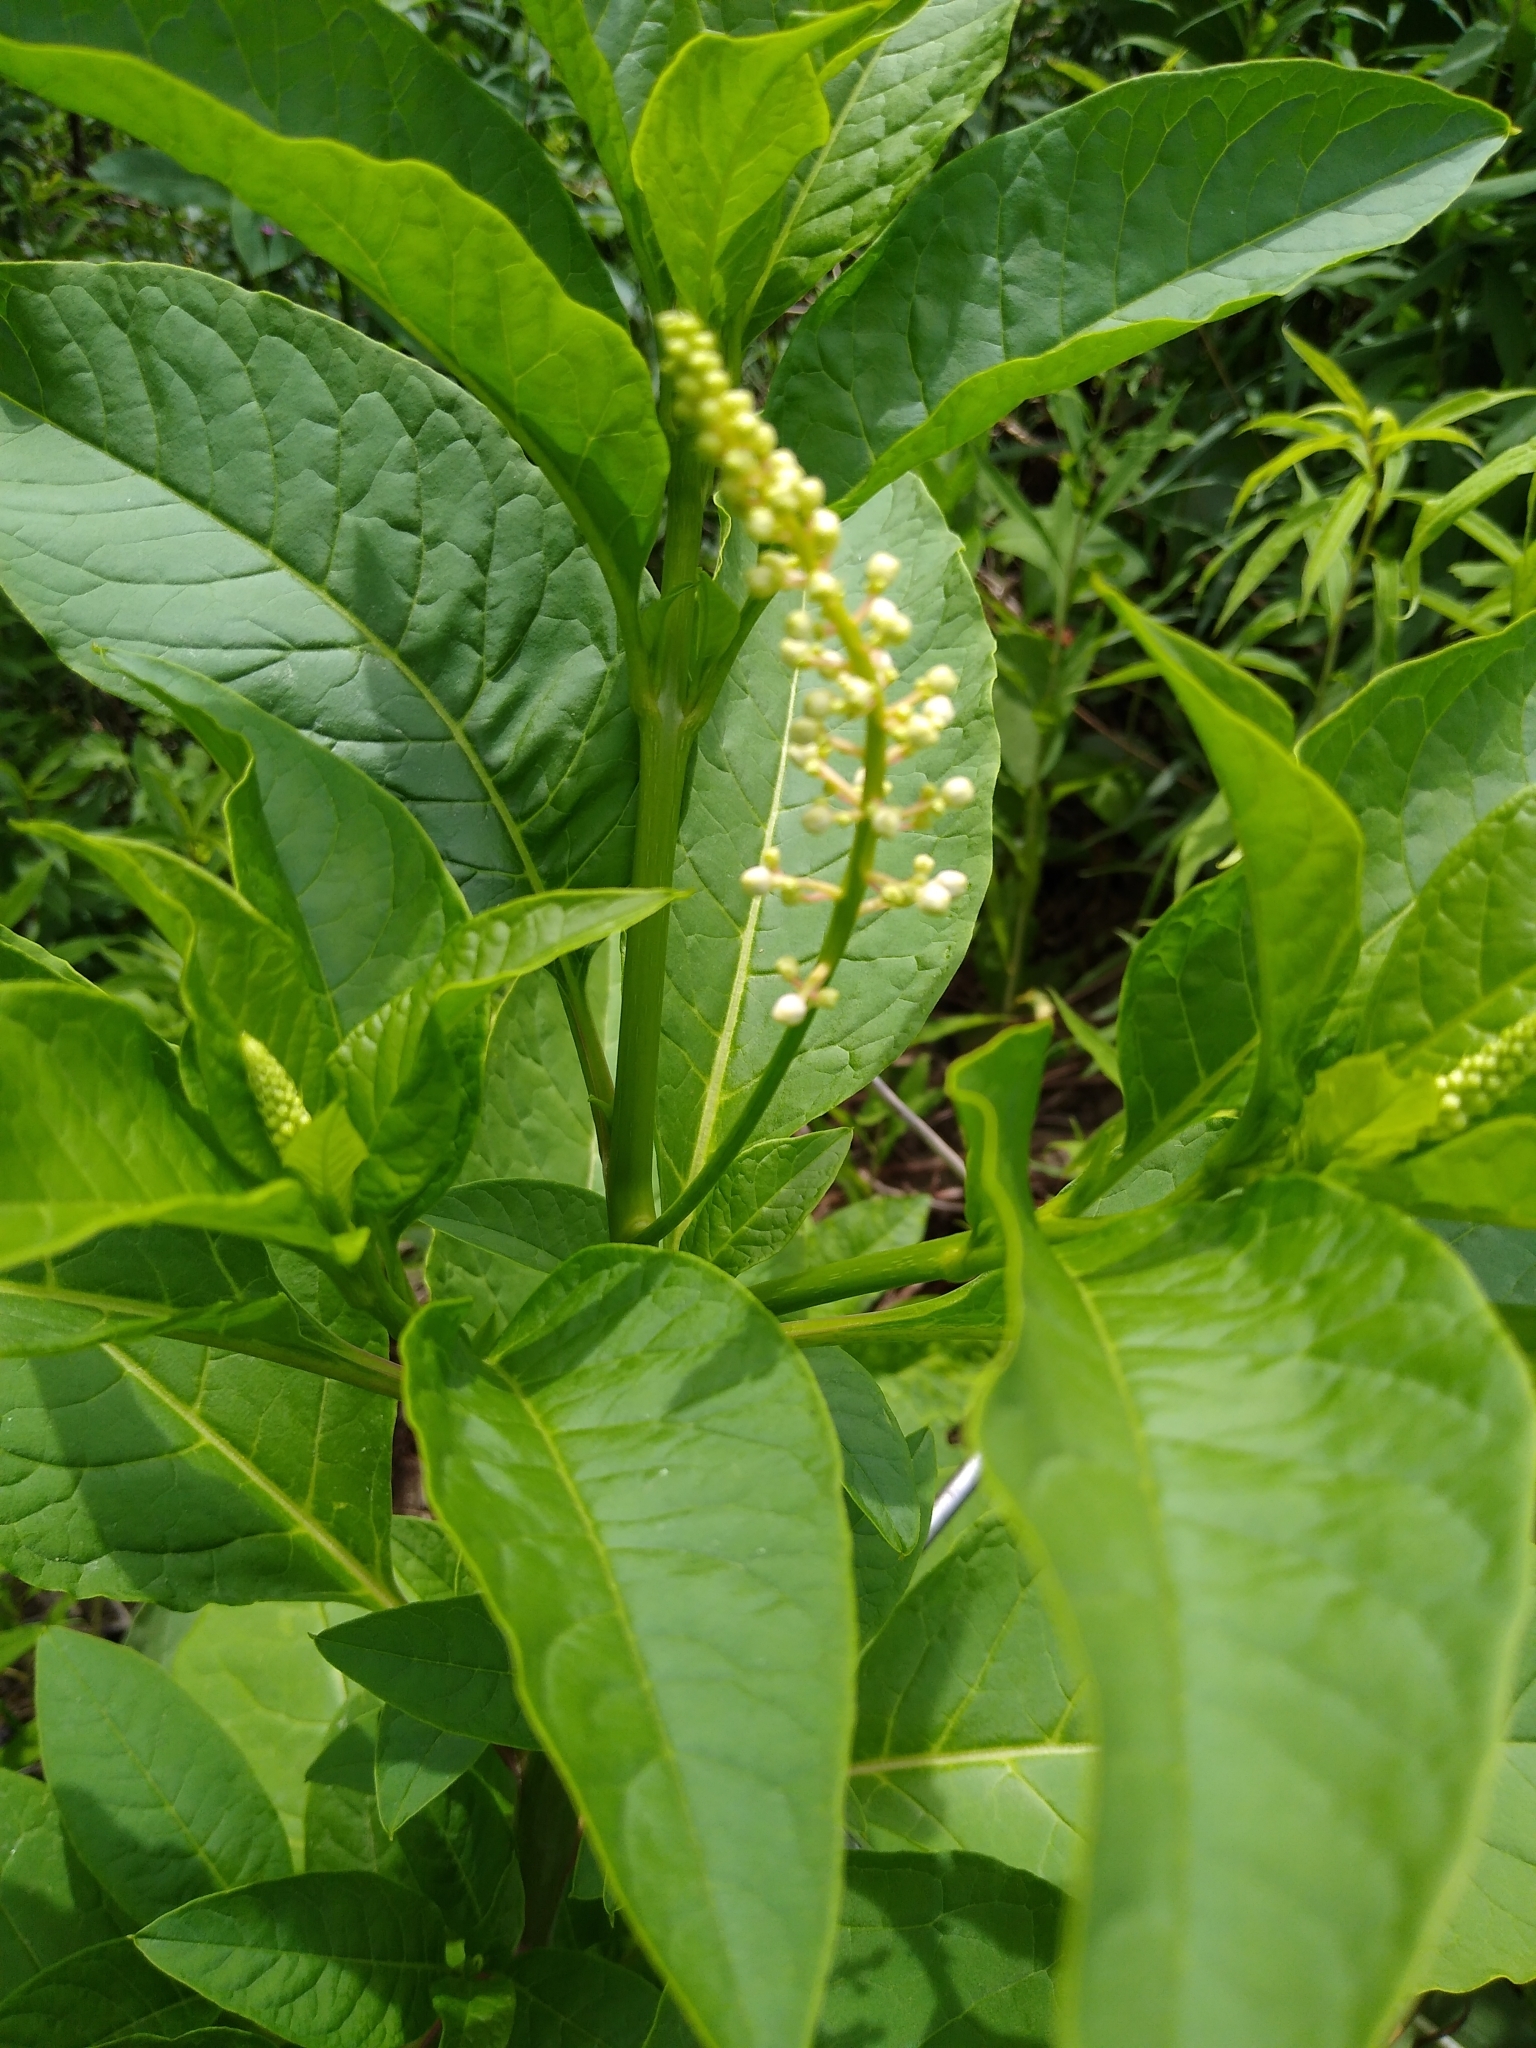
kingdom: Plantae
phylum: Tracheophyta
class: Magnoliopsida
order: Caryophyllales
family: Phytolaccaceae
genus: Phytolacca
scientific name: Phytolacca americana
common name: American pokeweed
